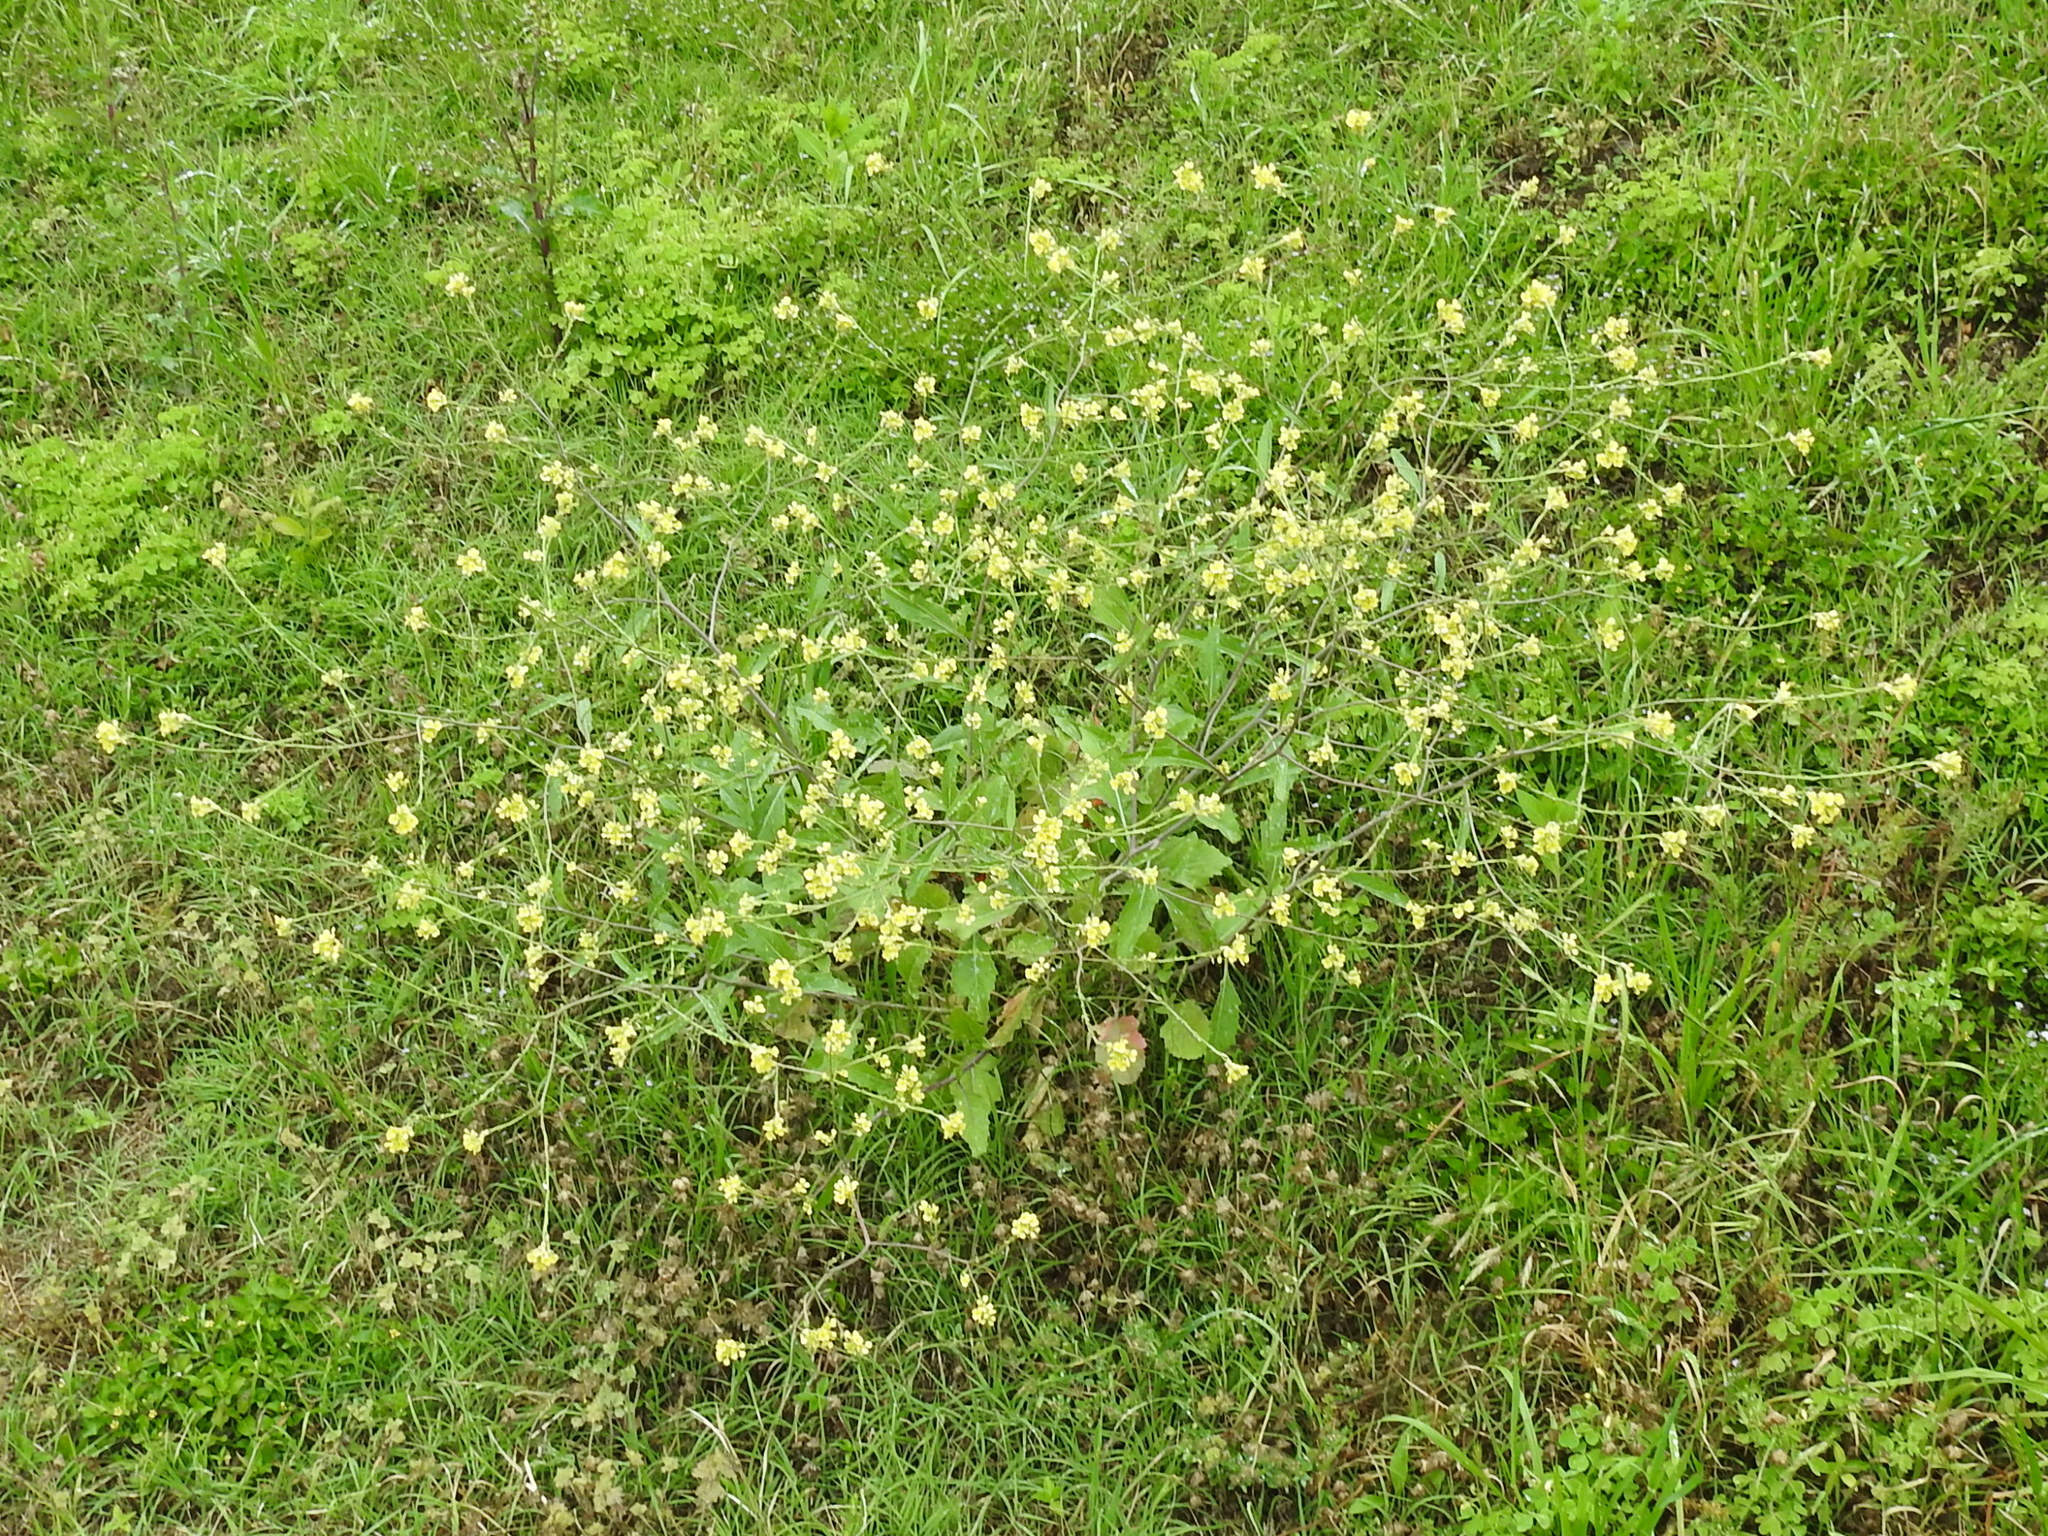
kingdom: Plantae
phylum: Tracheophyta
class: Magnoliopsida
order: Brassicales
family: Brassicaceae
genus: Rapistrum
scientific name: Rapistrum rugosum
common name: Annual bastardcabbage
